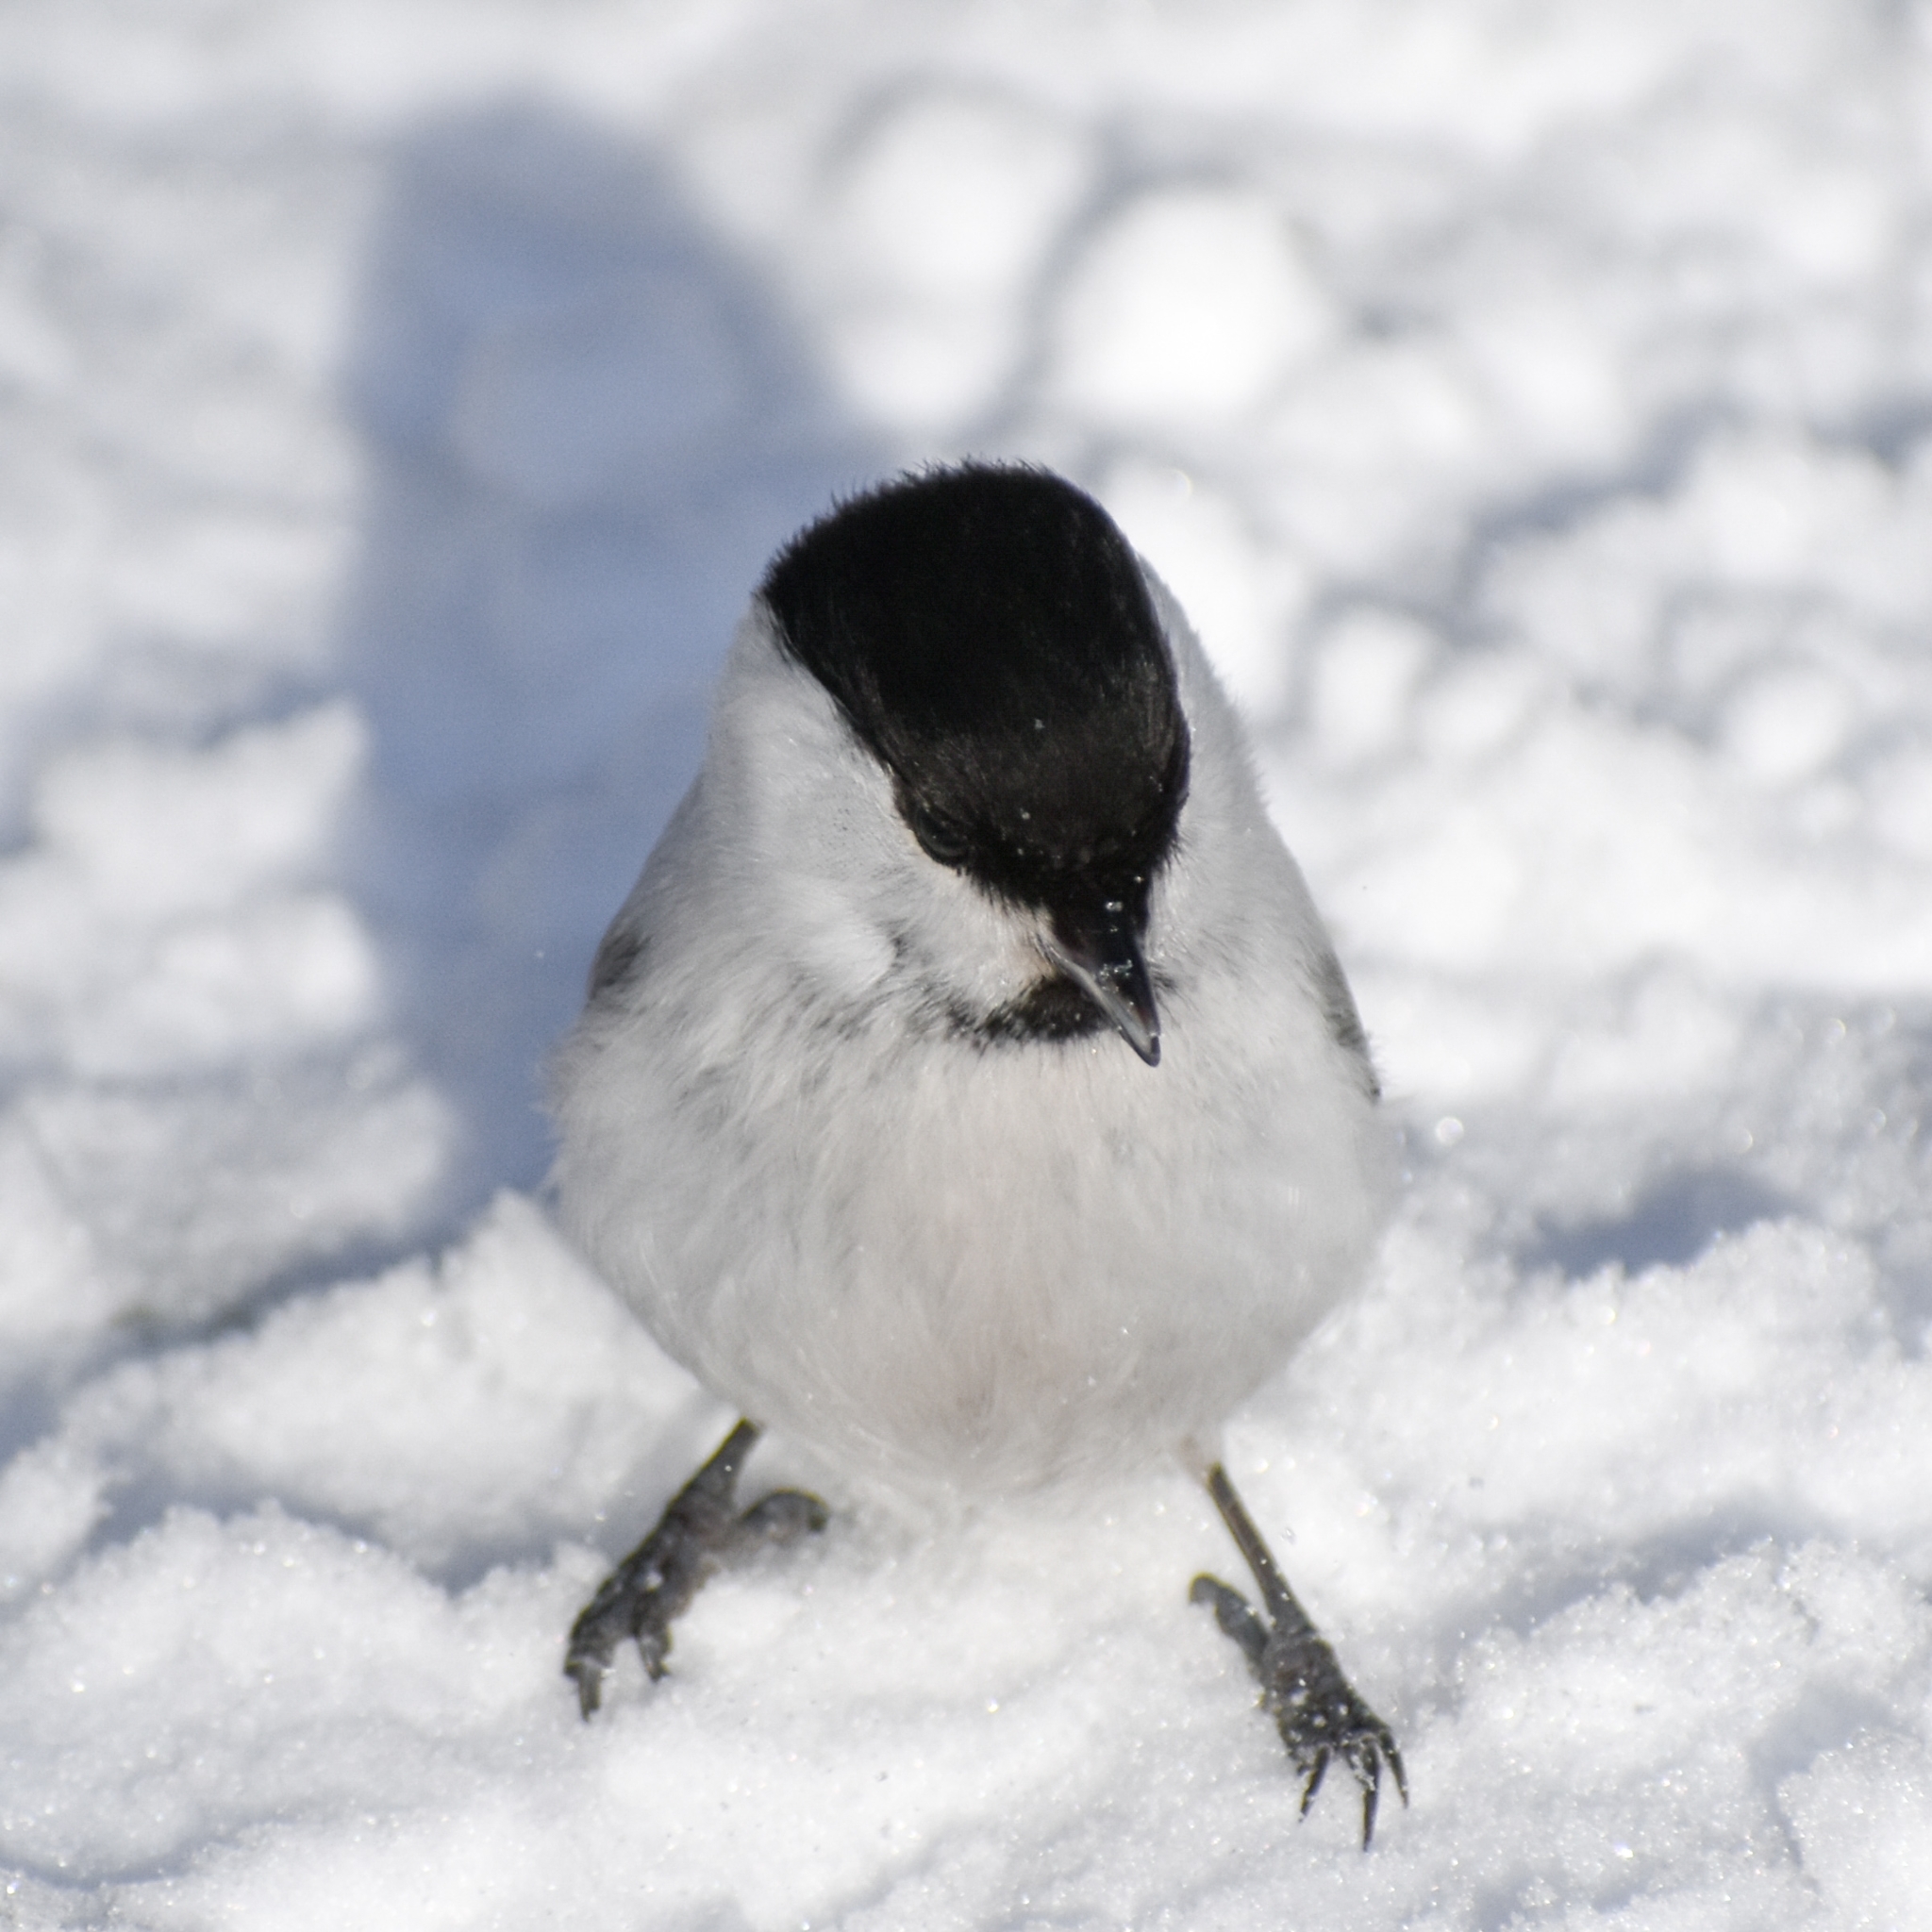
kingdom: Animalia
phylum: Chordata
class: Aves
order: Passeriformes
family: Paridae
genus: Poecile
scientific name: Poecile montanus
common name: Willow tit
